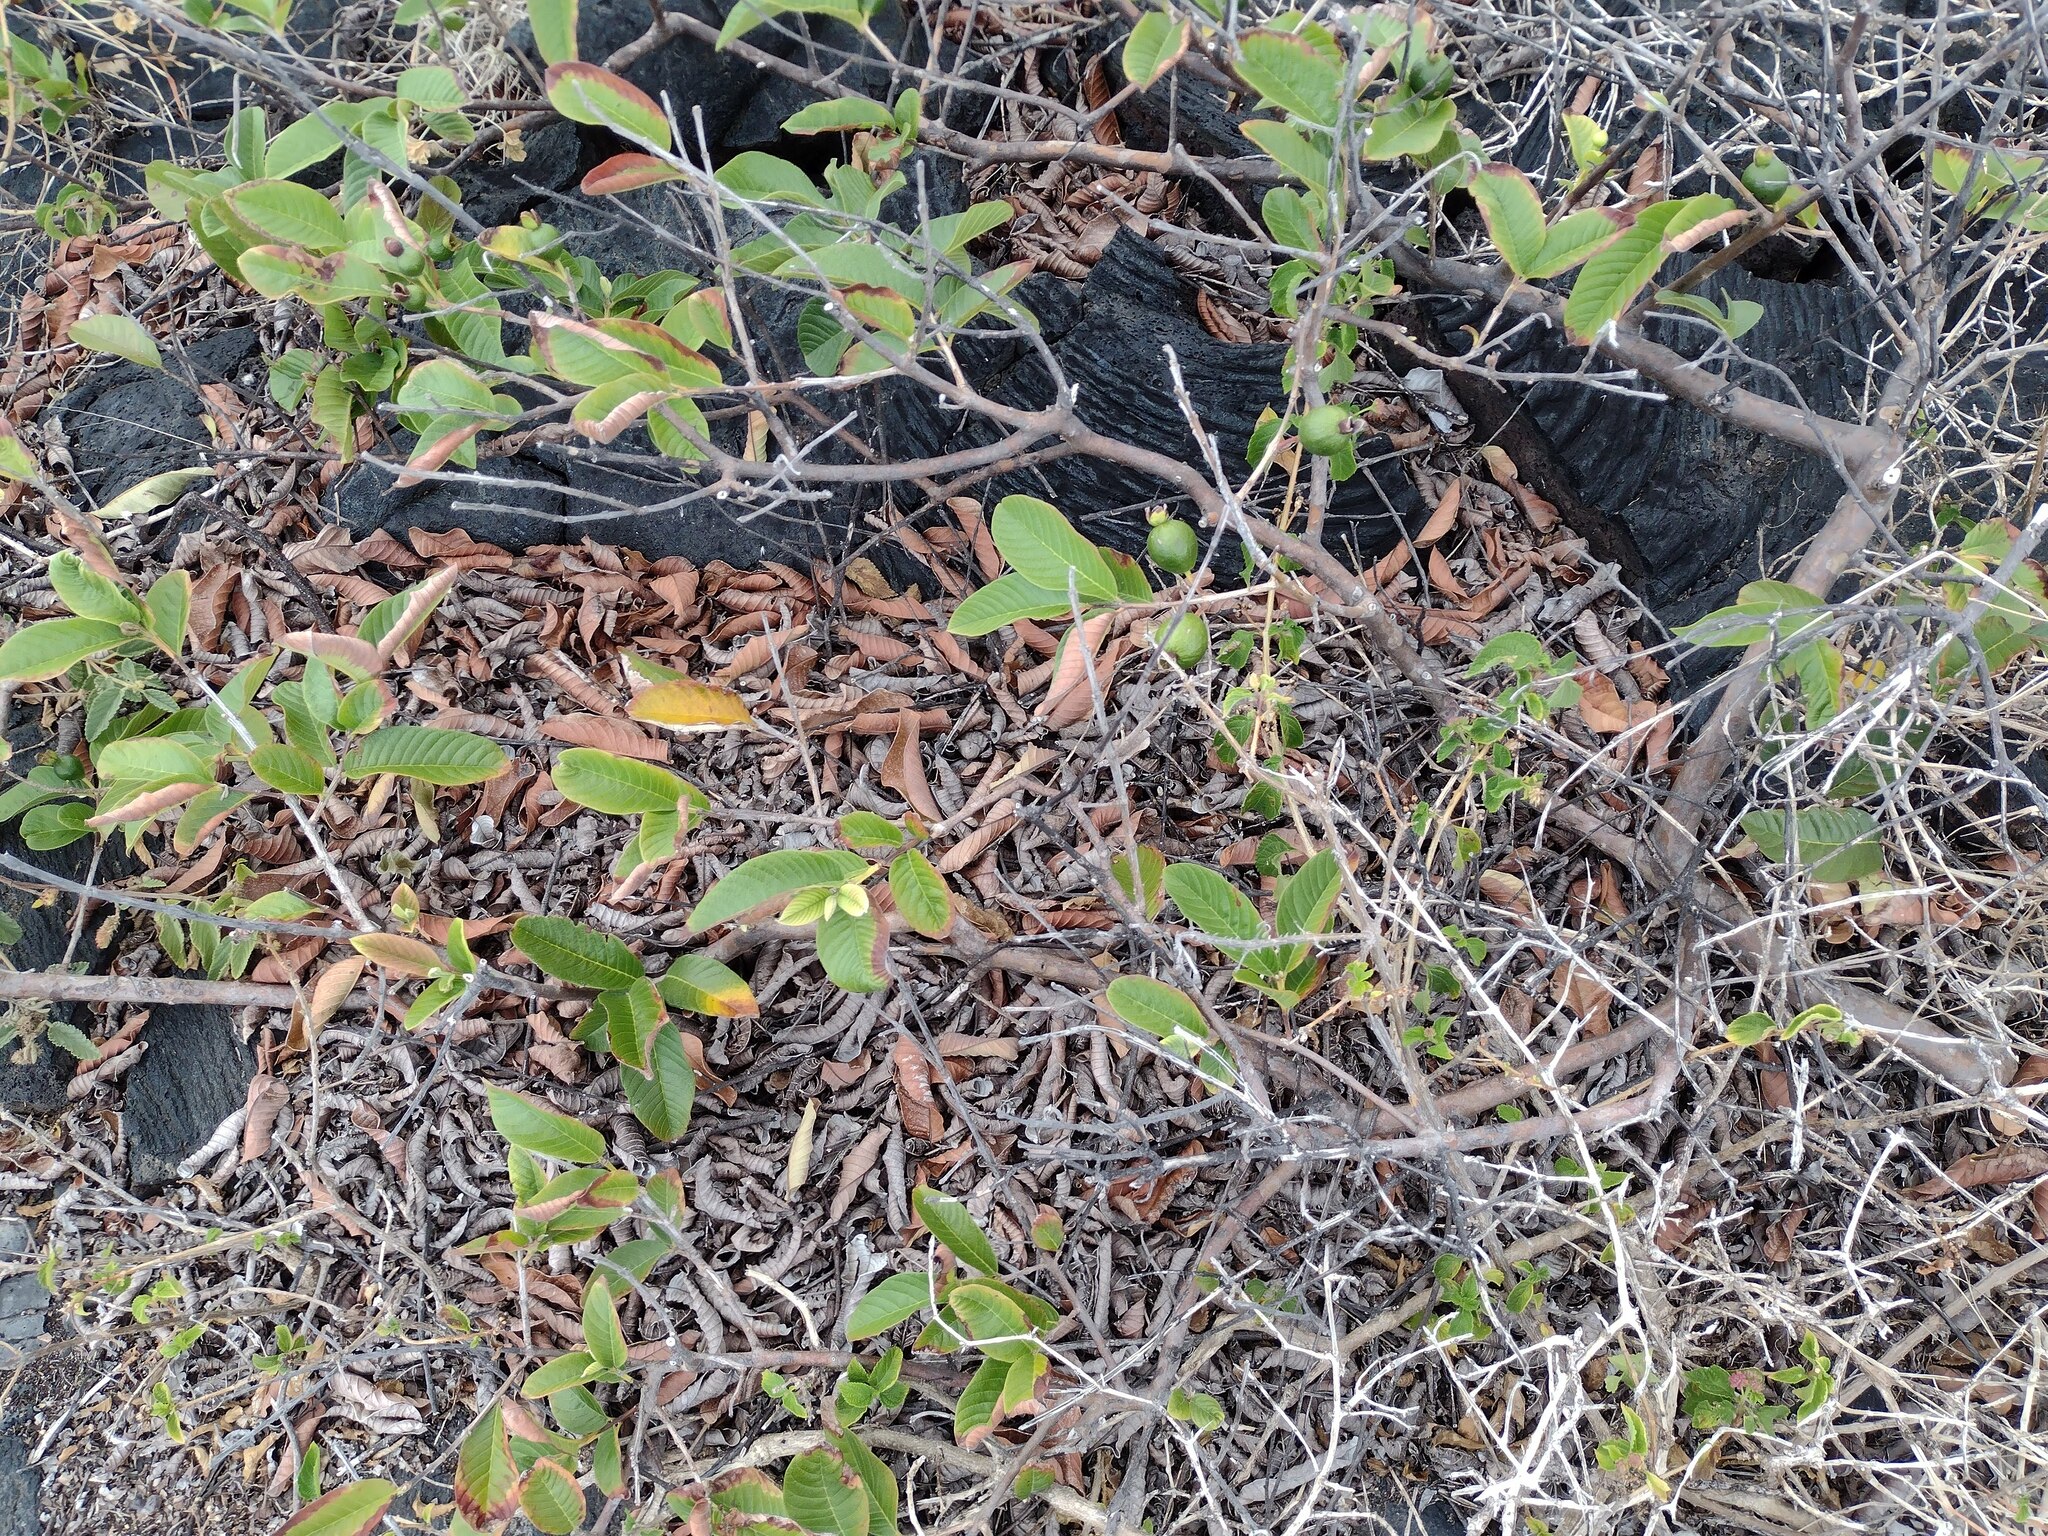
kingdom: Plantae
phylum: Tracheophyta
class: Magnoliopsida
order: Myrtales
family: Myrtaceae
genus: Psidium
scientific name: Psidium guajava
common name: Guava
